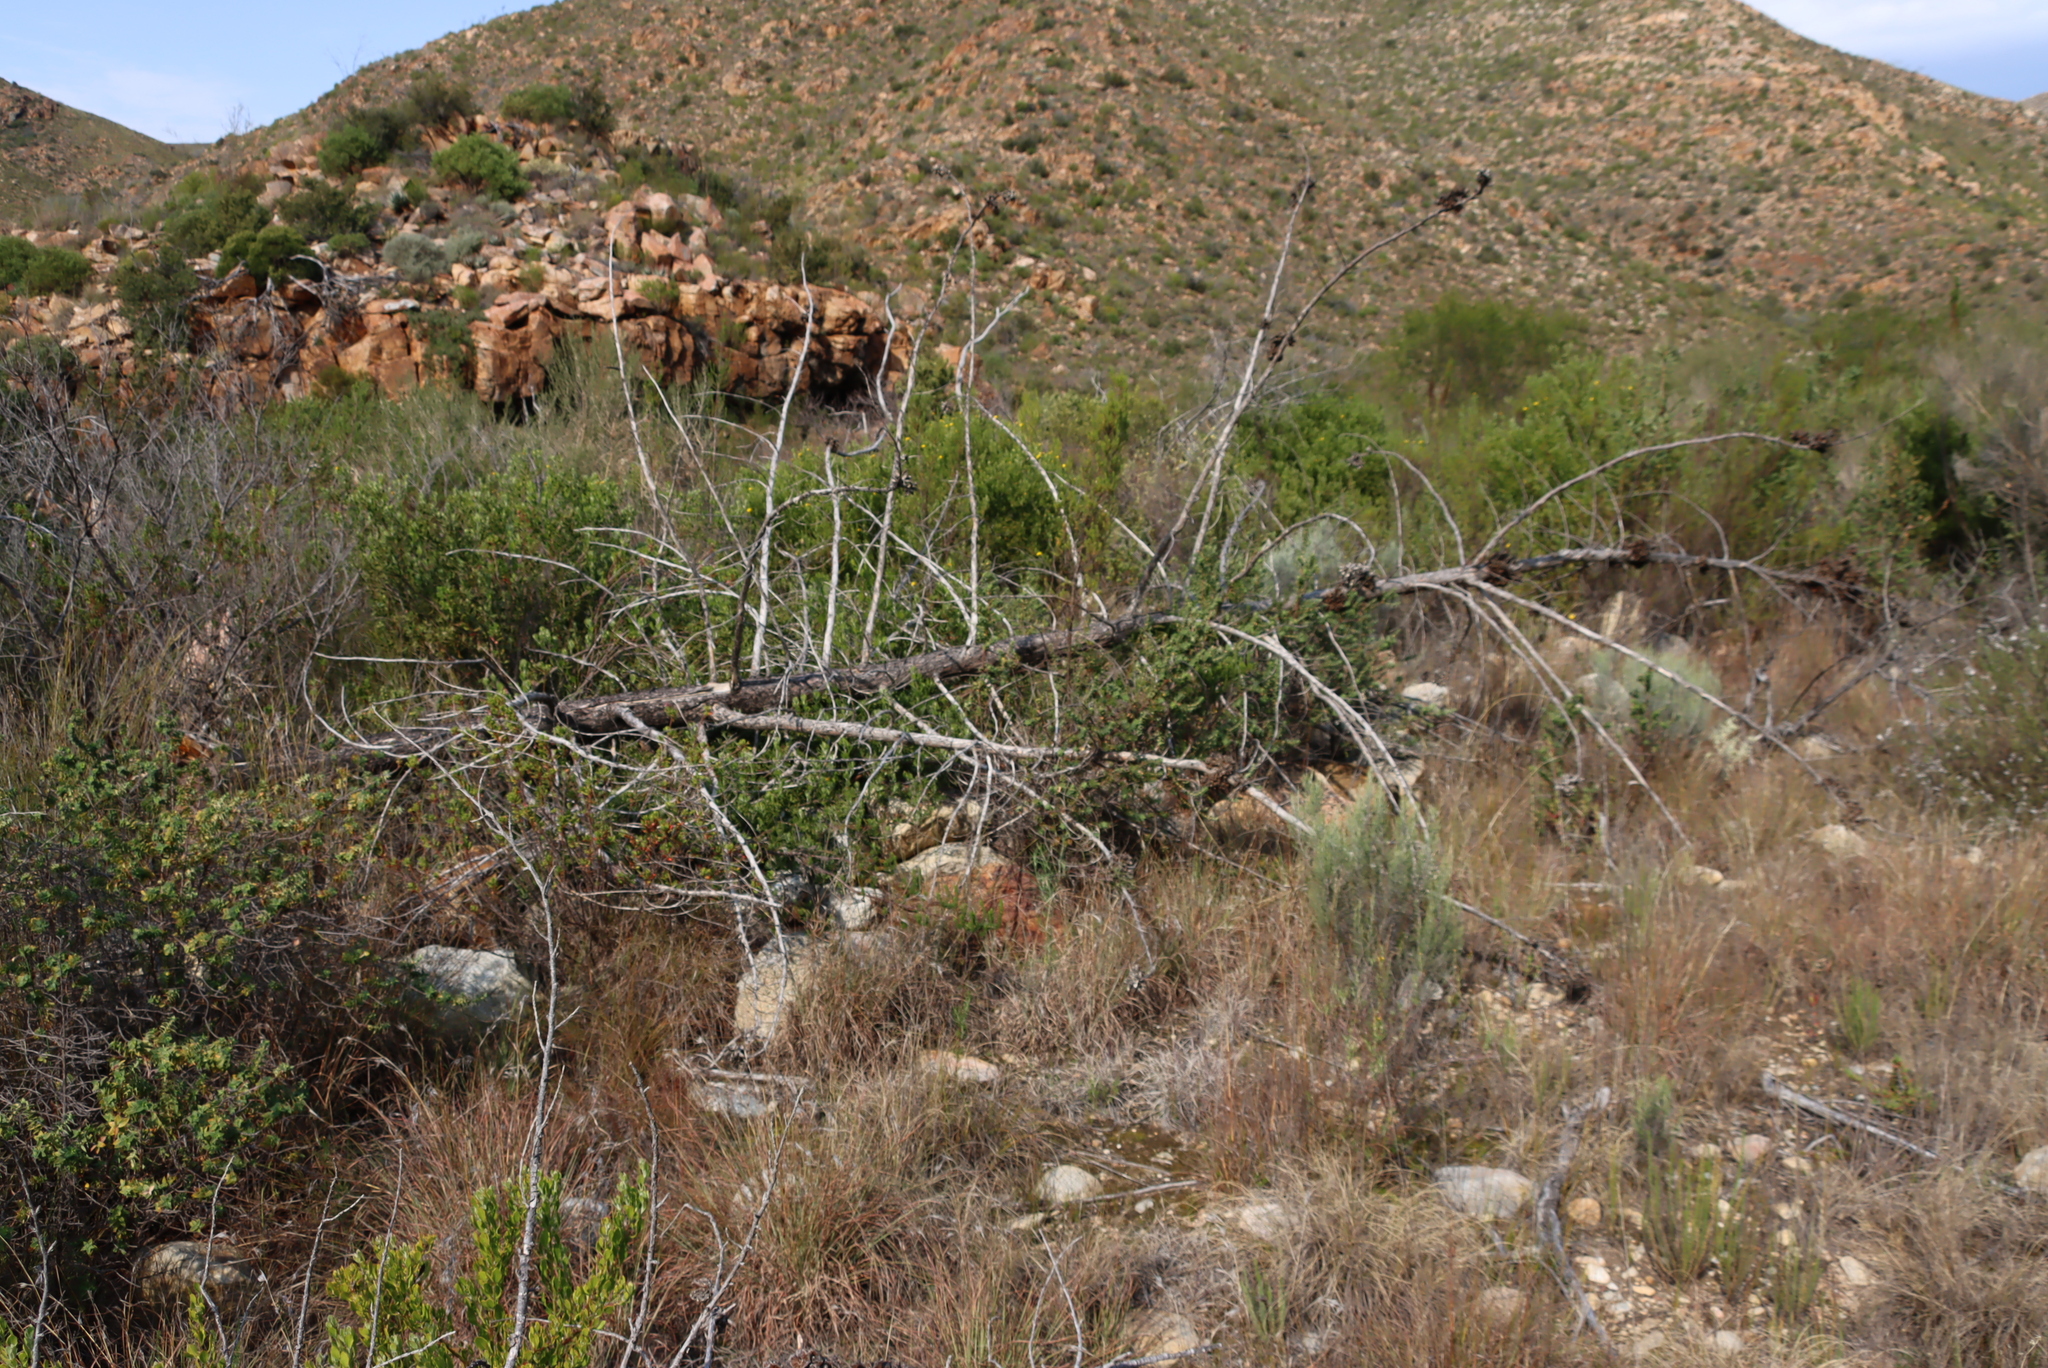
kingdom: Plantae
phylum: Tracheophyta
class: Pinopsida
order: Pinales
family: Cupressaceae
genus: Widdringtonia
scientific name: Widdringtonia schwarzii
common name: Baviaans cedar
